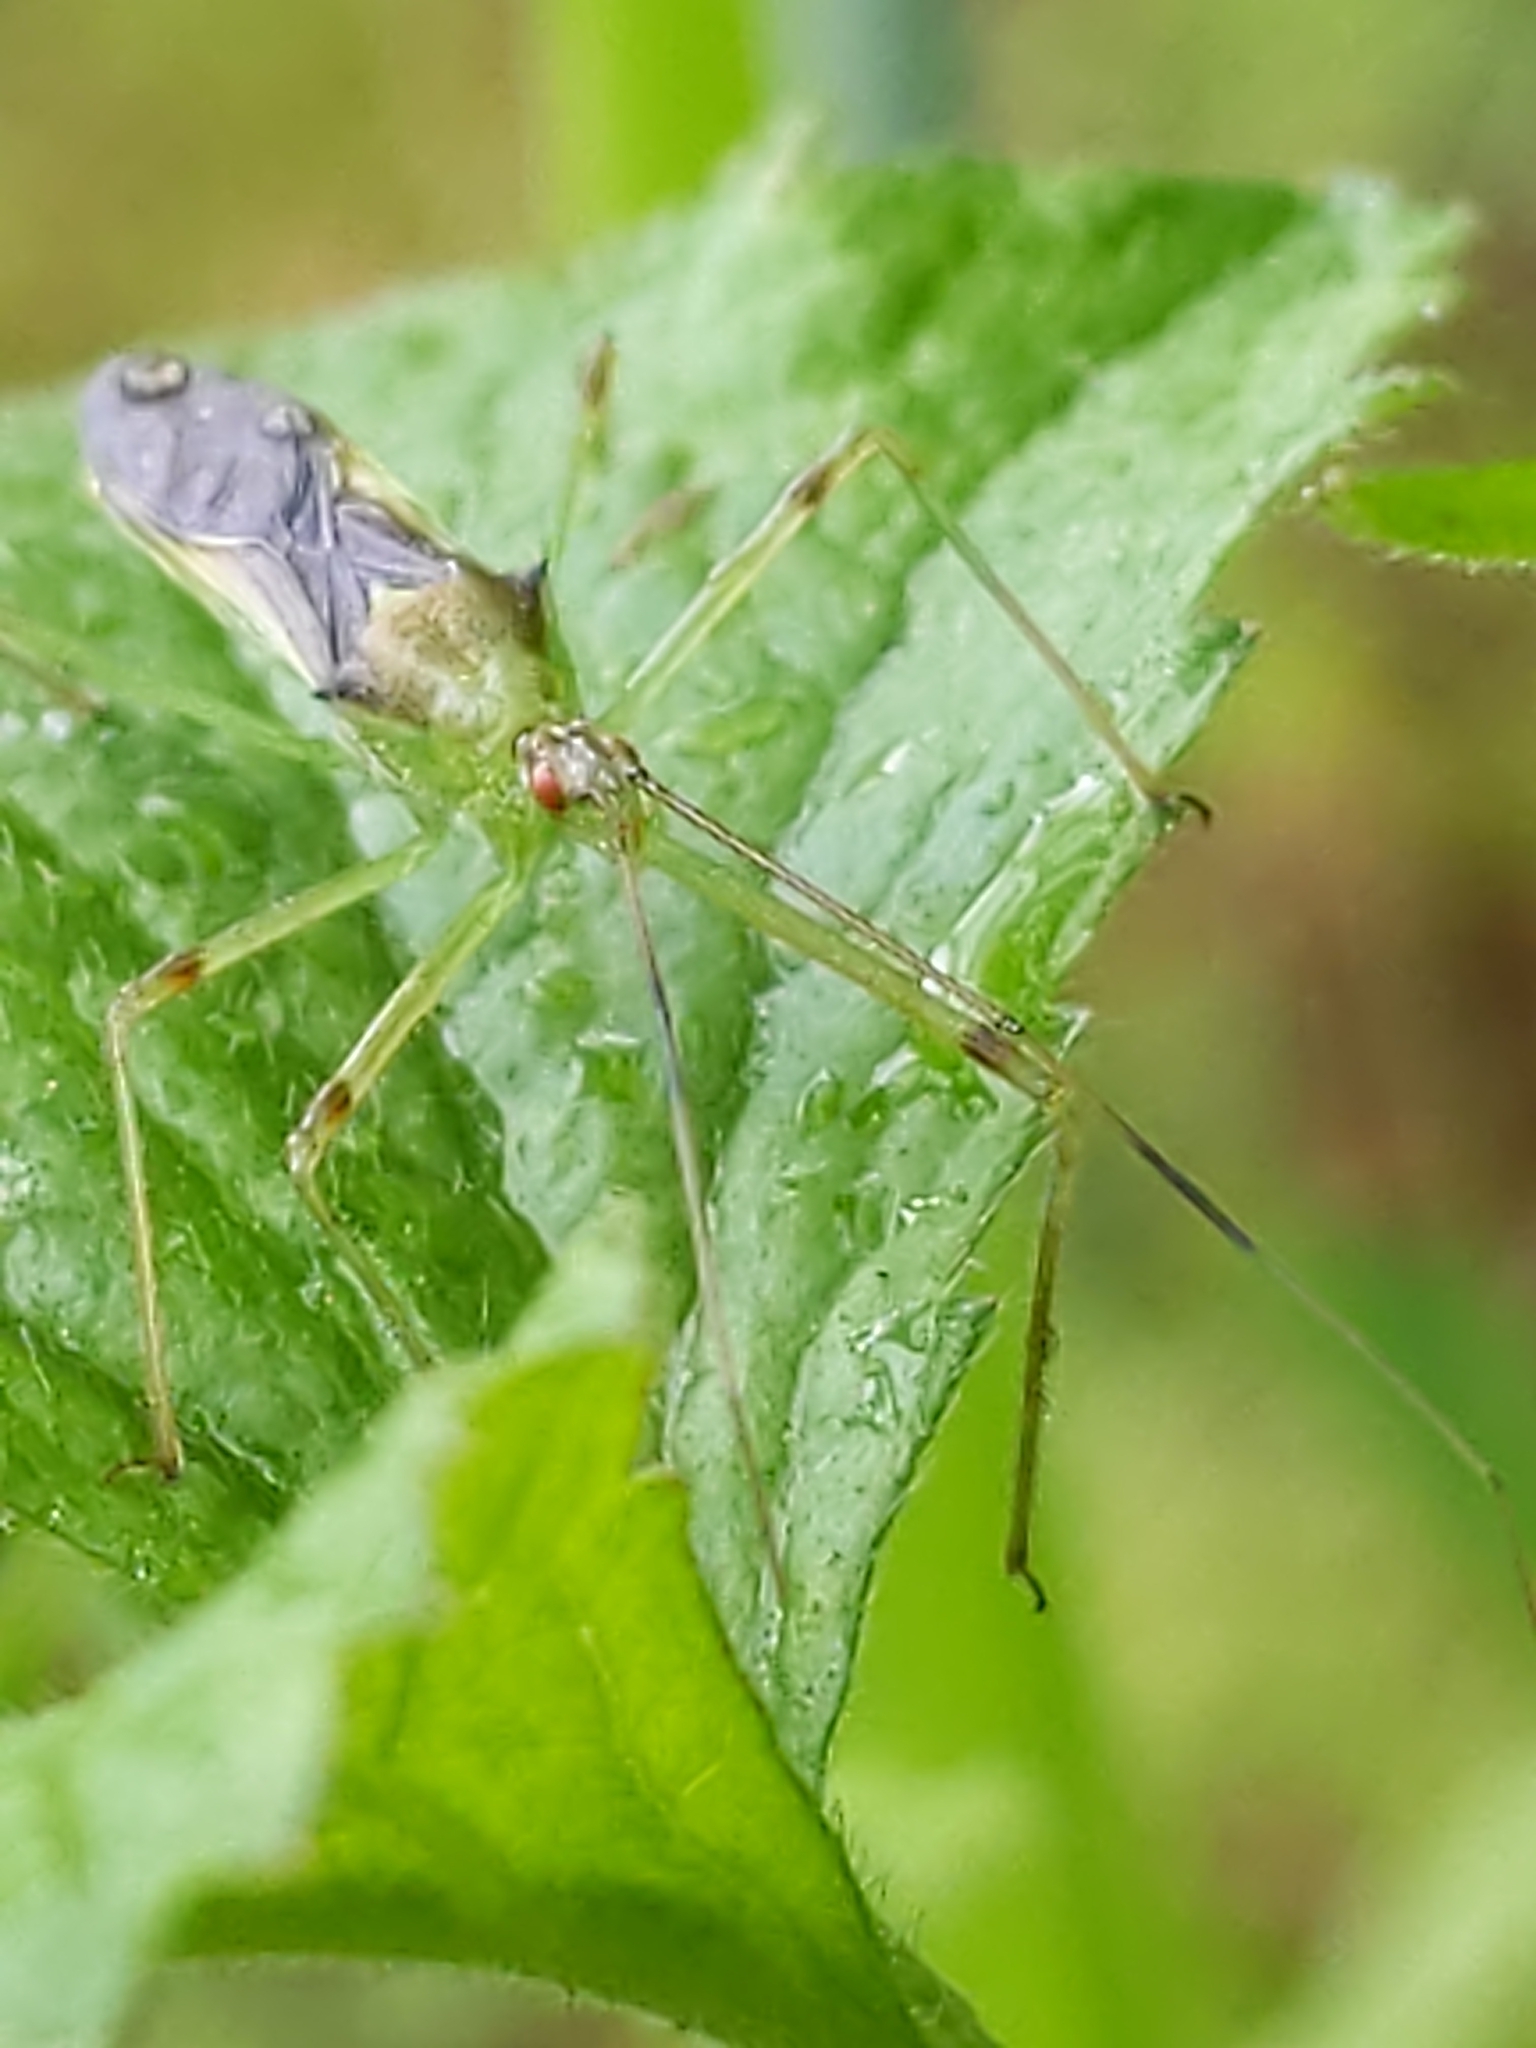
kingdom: Animalia
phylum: Arthropoda
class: Insecta
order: Hemiptera
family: Reduviidae
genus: Zelus
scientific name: Zelus luridus
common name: Pale green assassin bug
